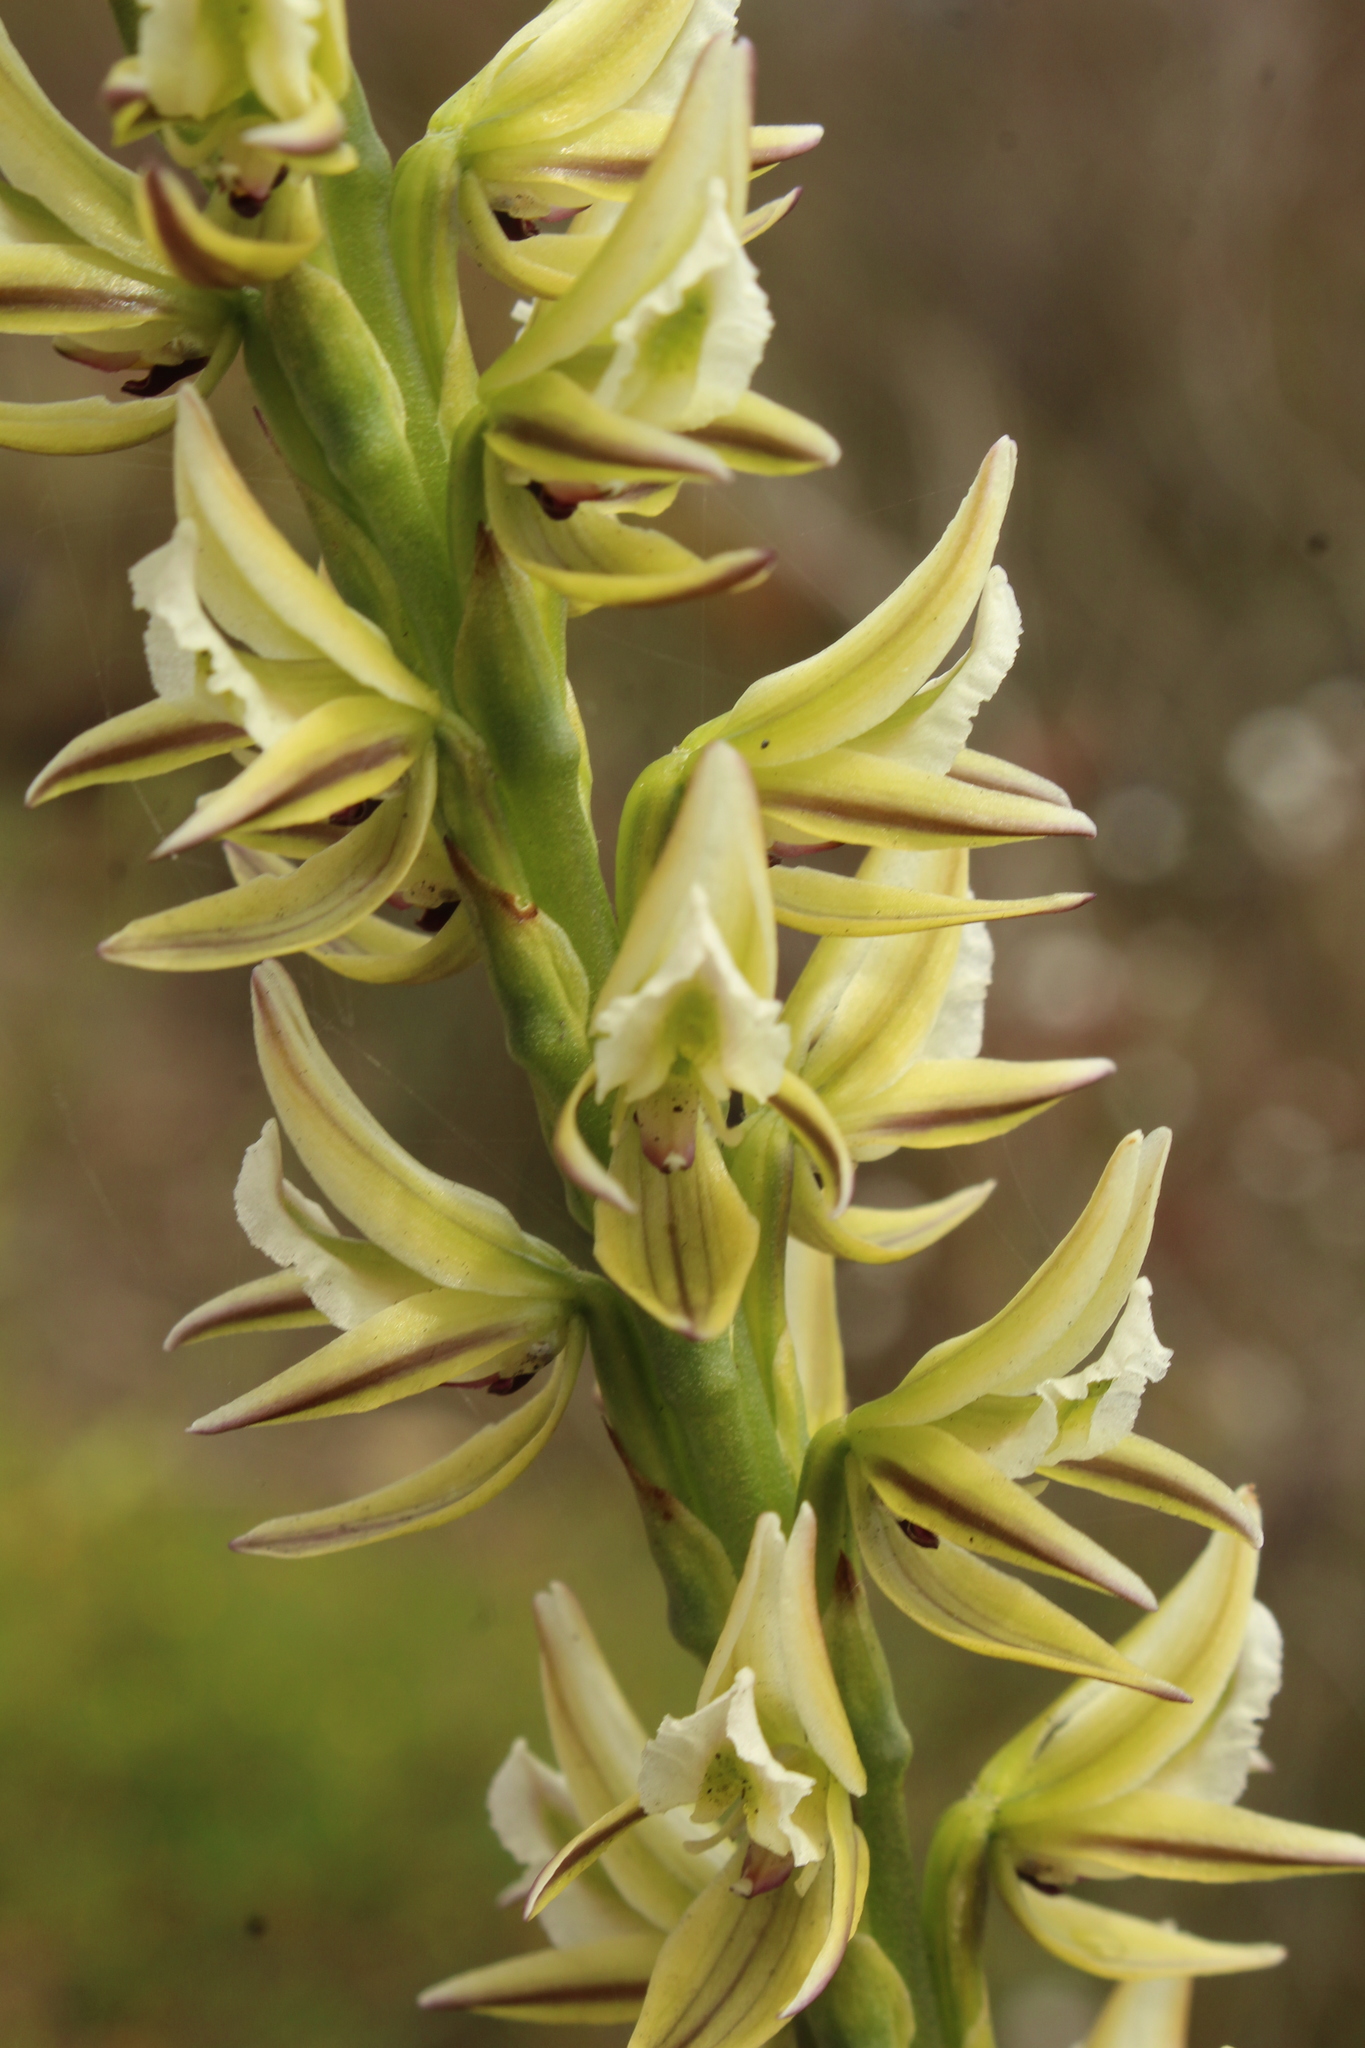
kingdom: Plantae
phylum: Tracheophyta
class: Liliopsida
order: Asparagales
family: Orchidaceae
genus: Prasophyllum
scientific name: Prasophyllum brownii
